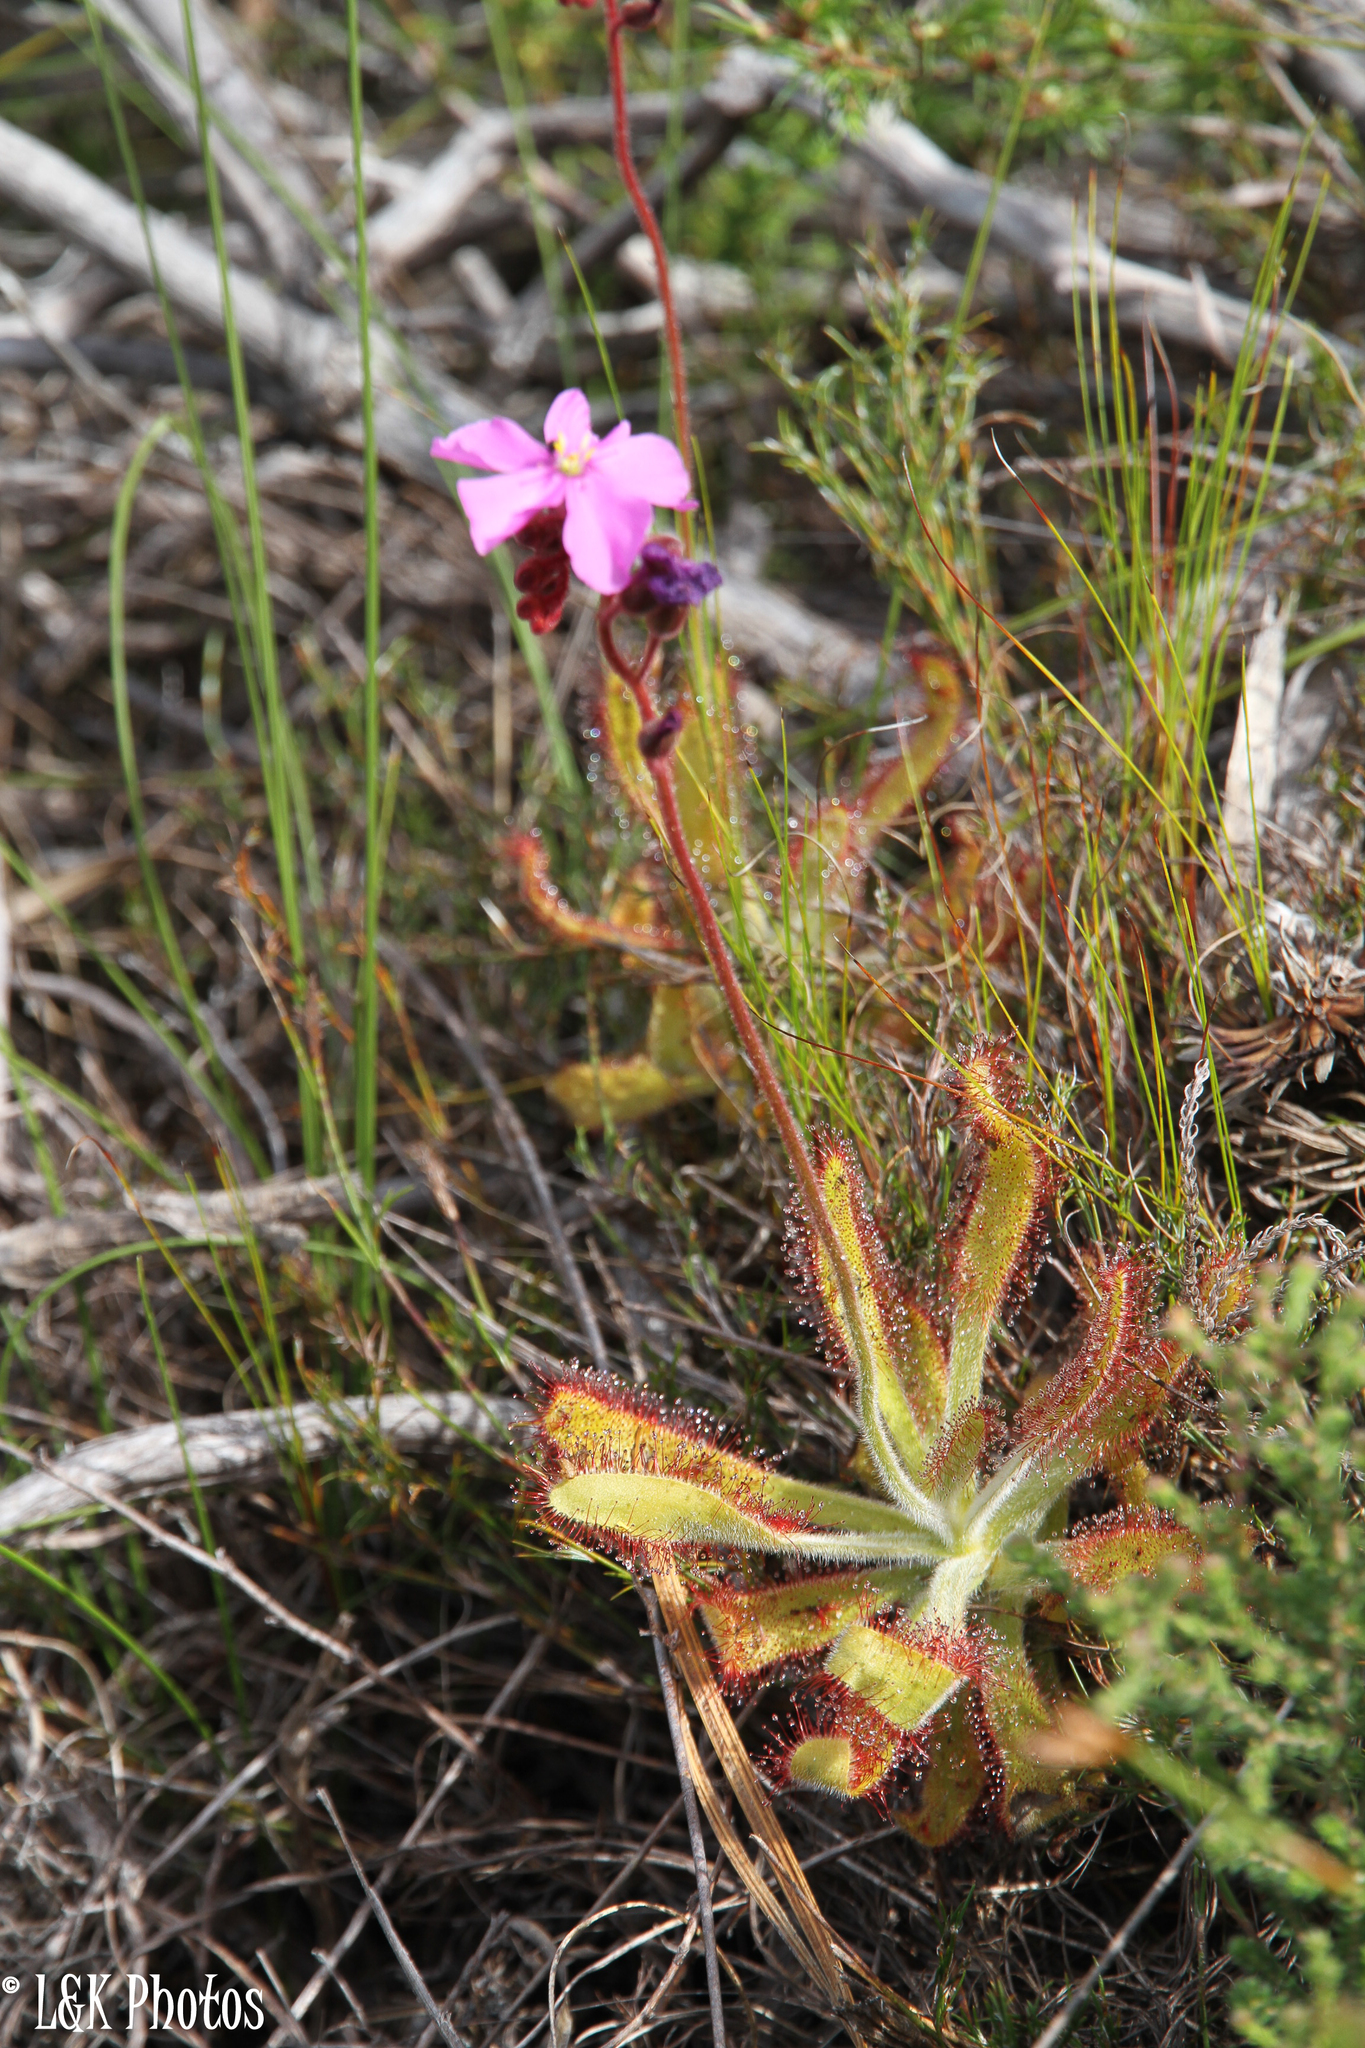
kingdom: Plantae
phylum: Tracheophyta
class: Magnoliopsida
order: Caryophyllales
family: Droseraceae
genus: Drosera
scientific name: Drosera hilaris
